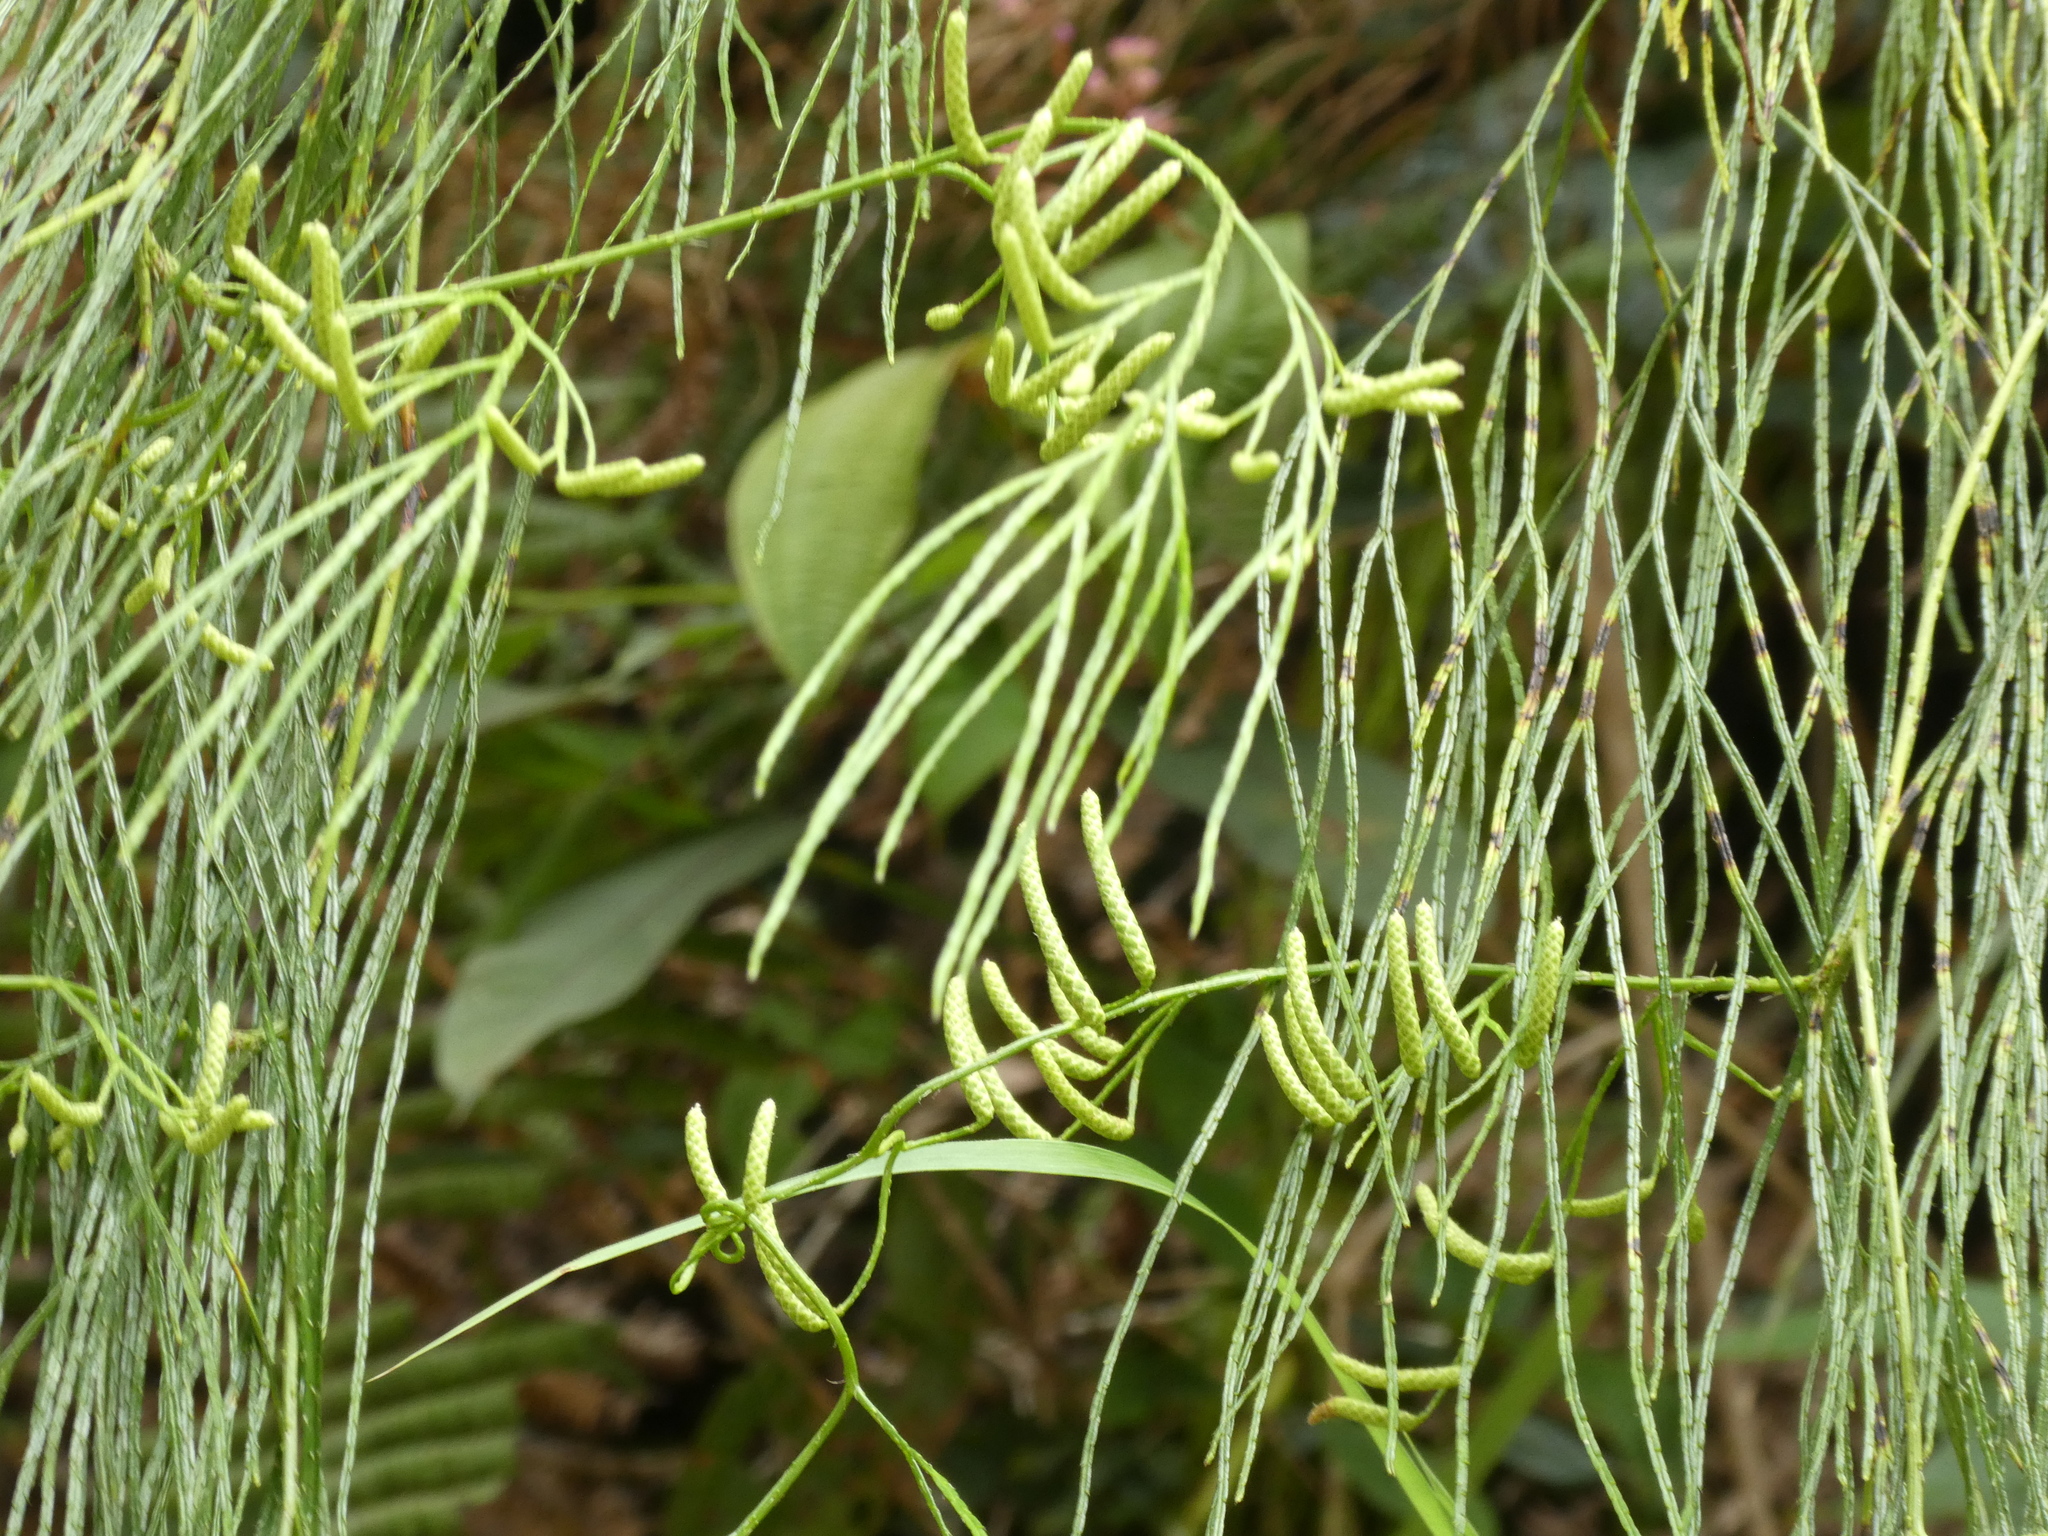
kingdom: Plantae
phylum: Tracheophyta
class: Lycopodiopsida
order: Lycopodiales
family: Lycopodiaceae
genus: Lycopodiastrum
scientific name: Lycopodiastrum casuarinoides
